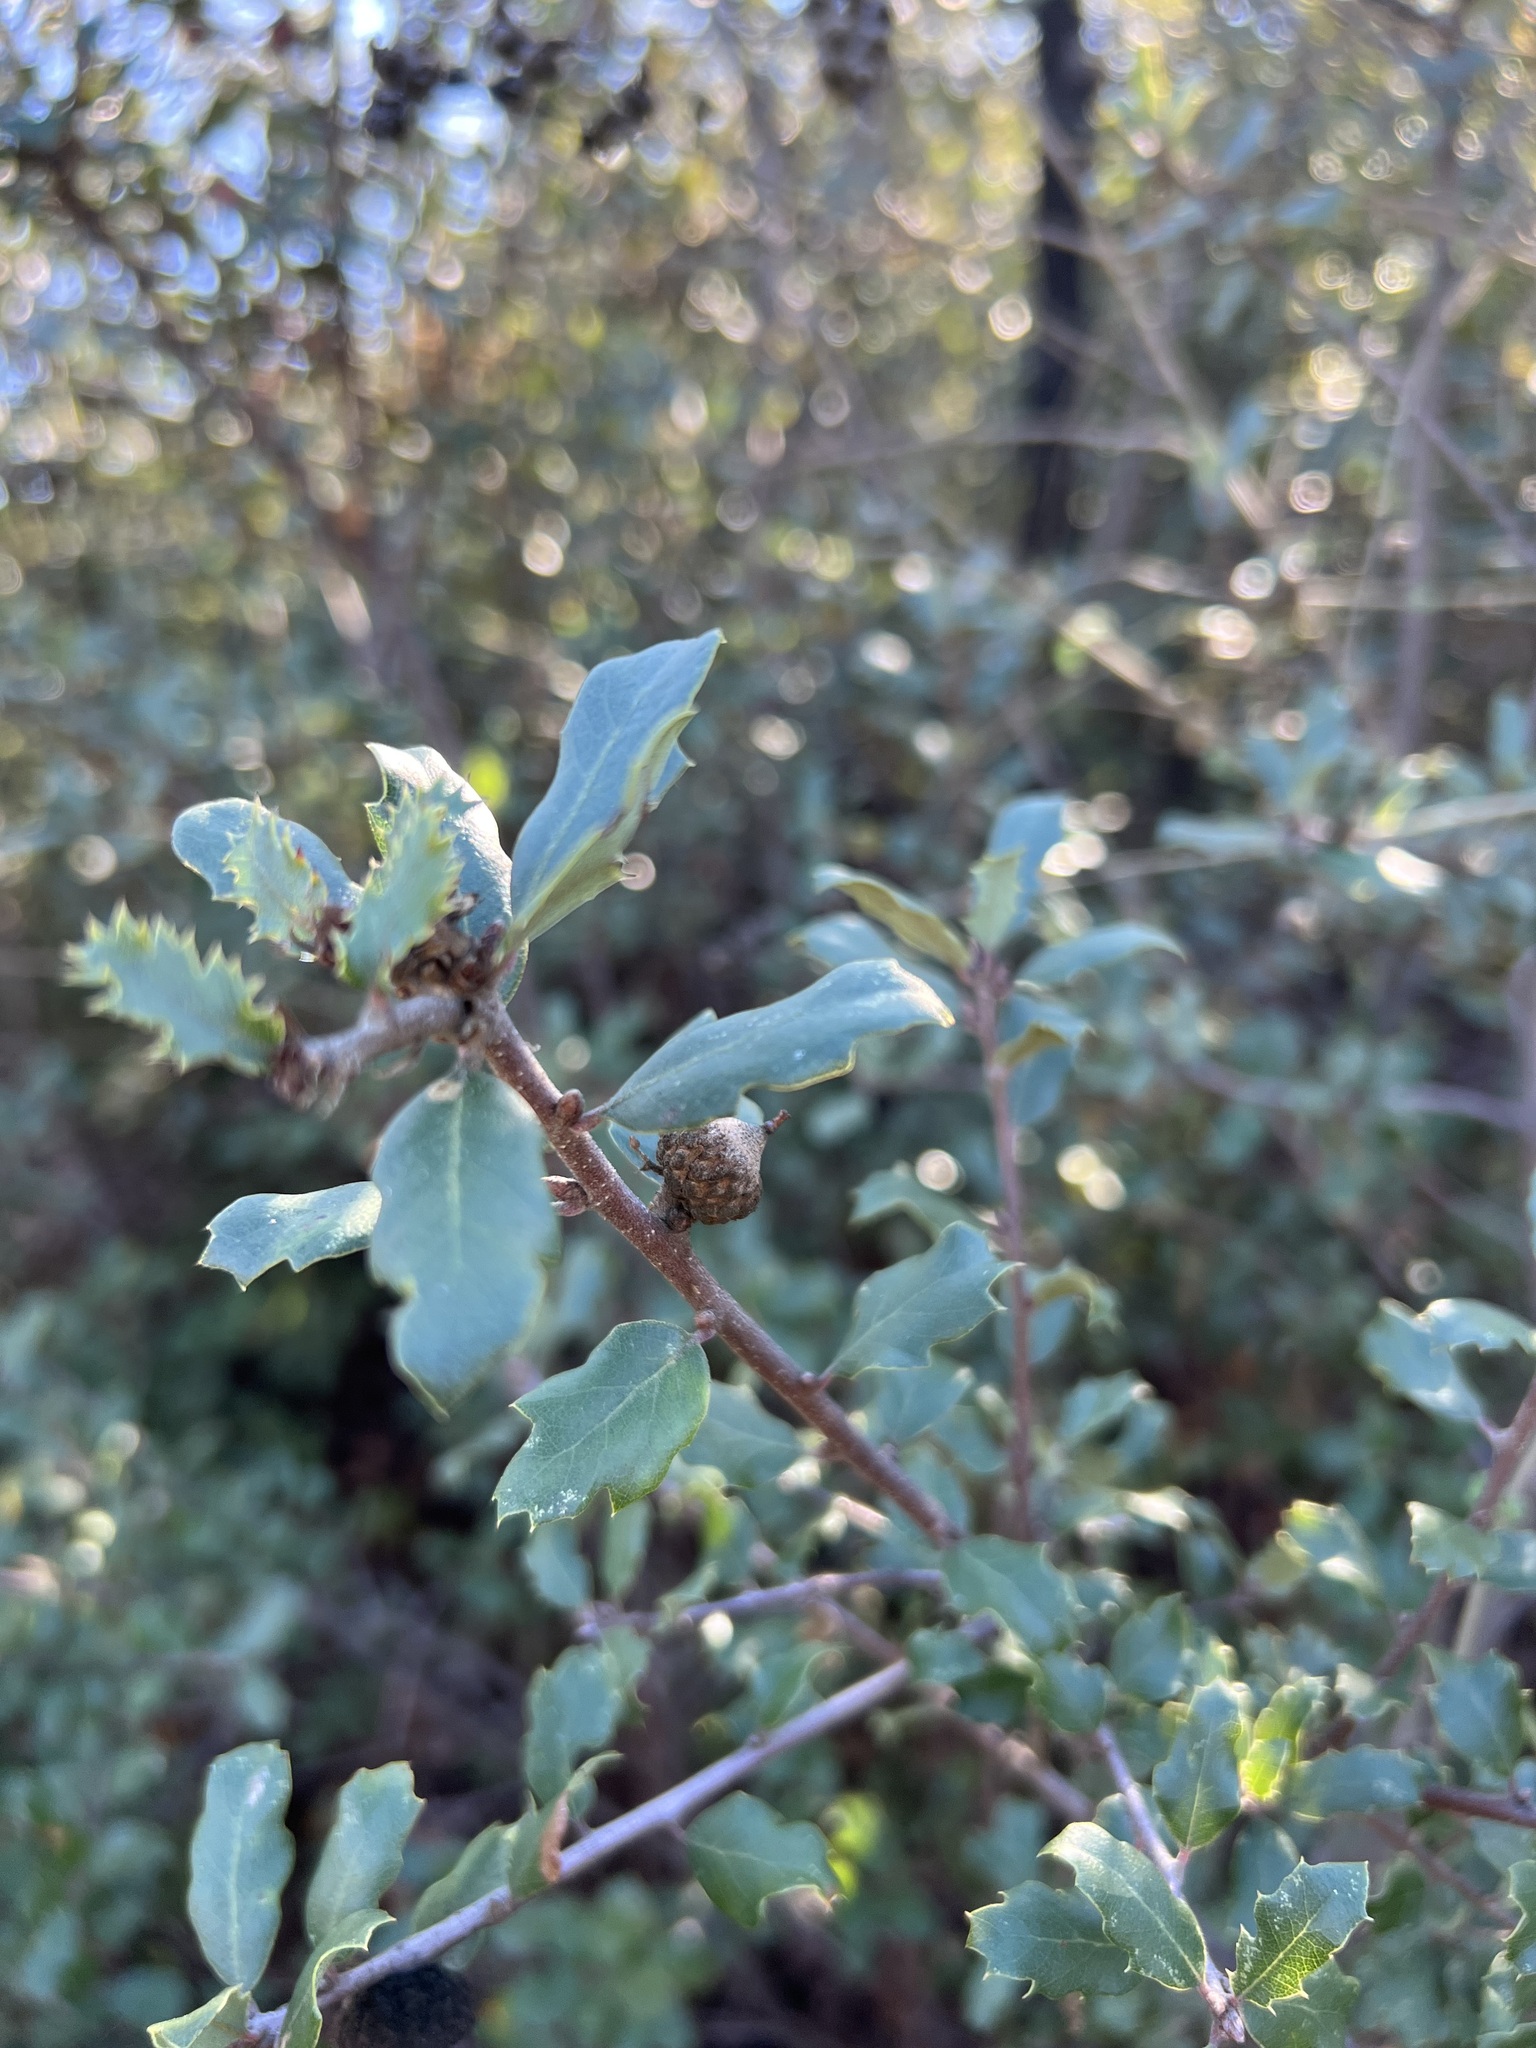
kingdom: Plantae
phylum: Tracheophyta
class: Magnoliopsida
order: Fagales
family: Fagaceae
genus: Quercus
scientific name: Quercus berberidifolia
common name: California scrub oak
